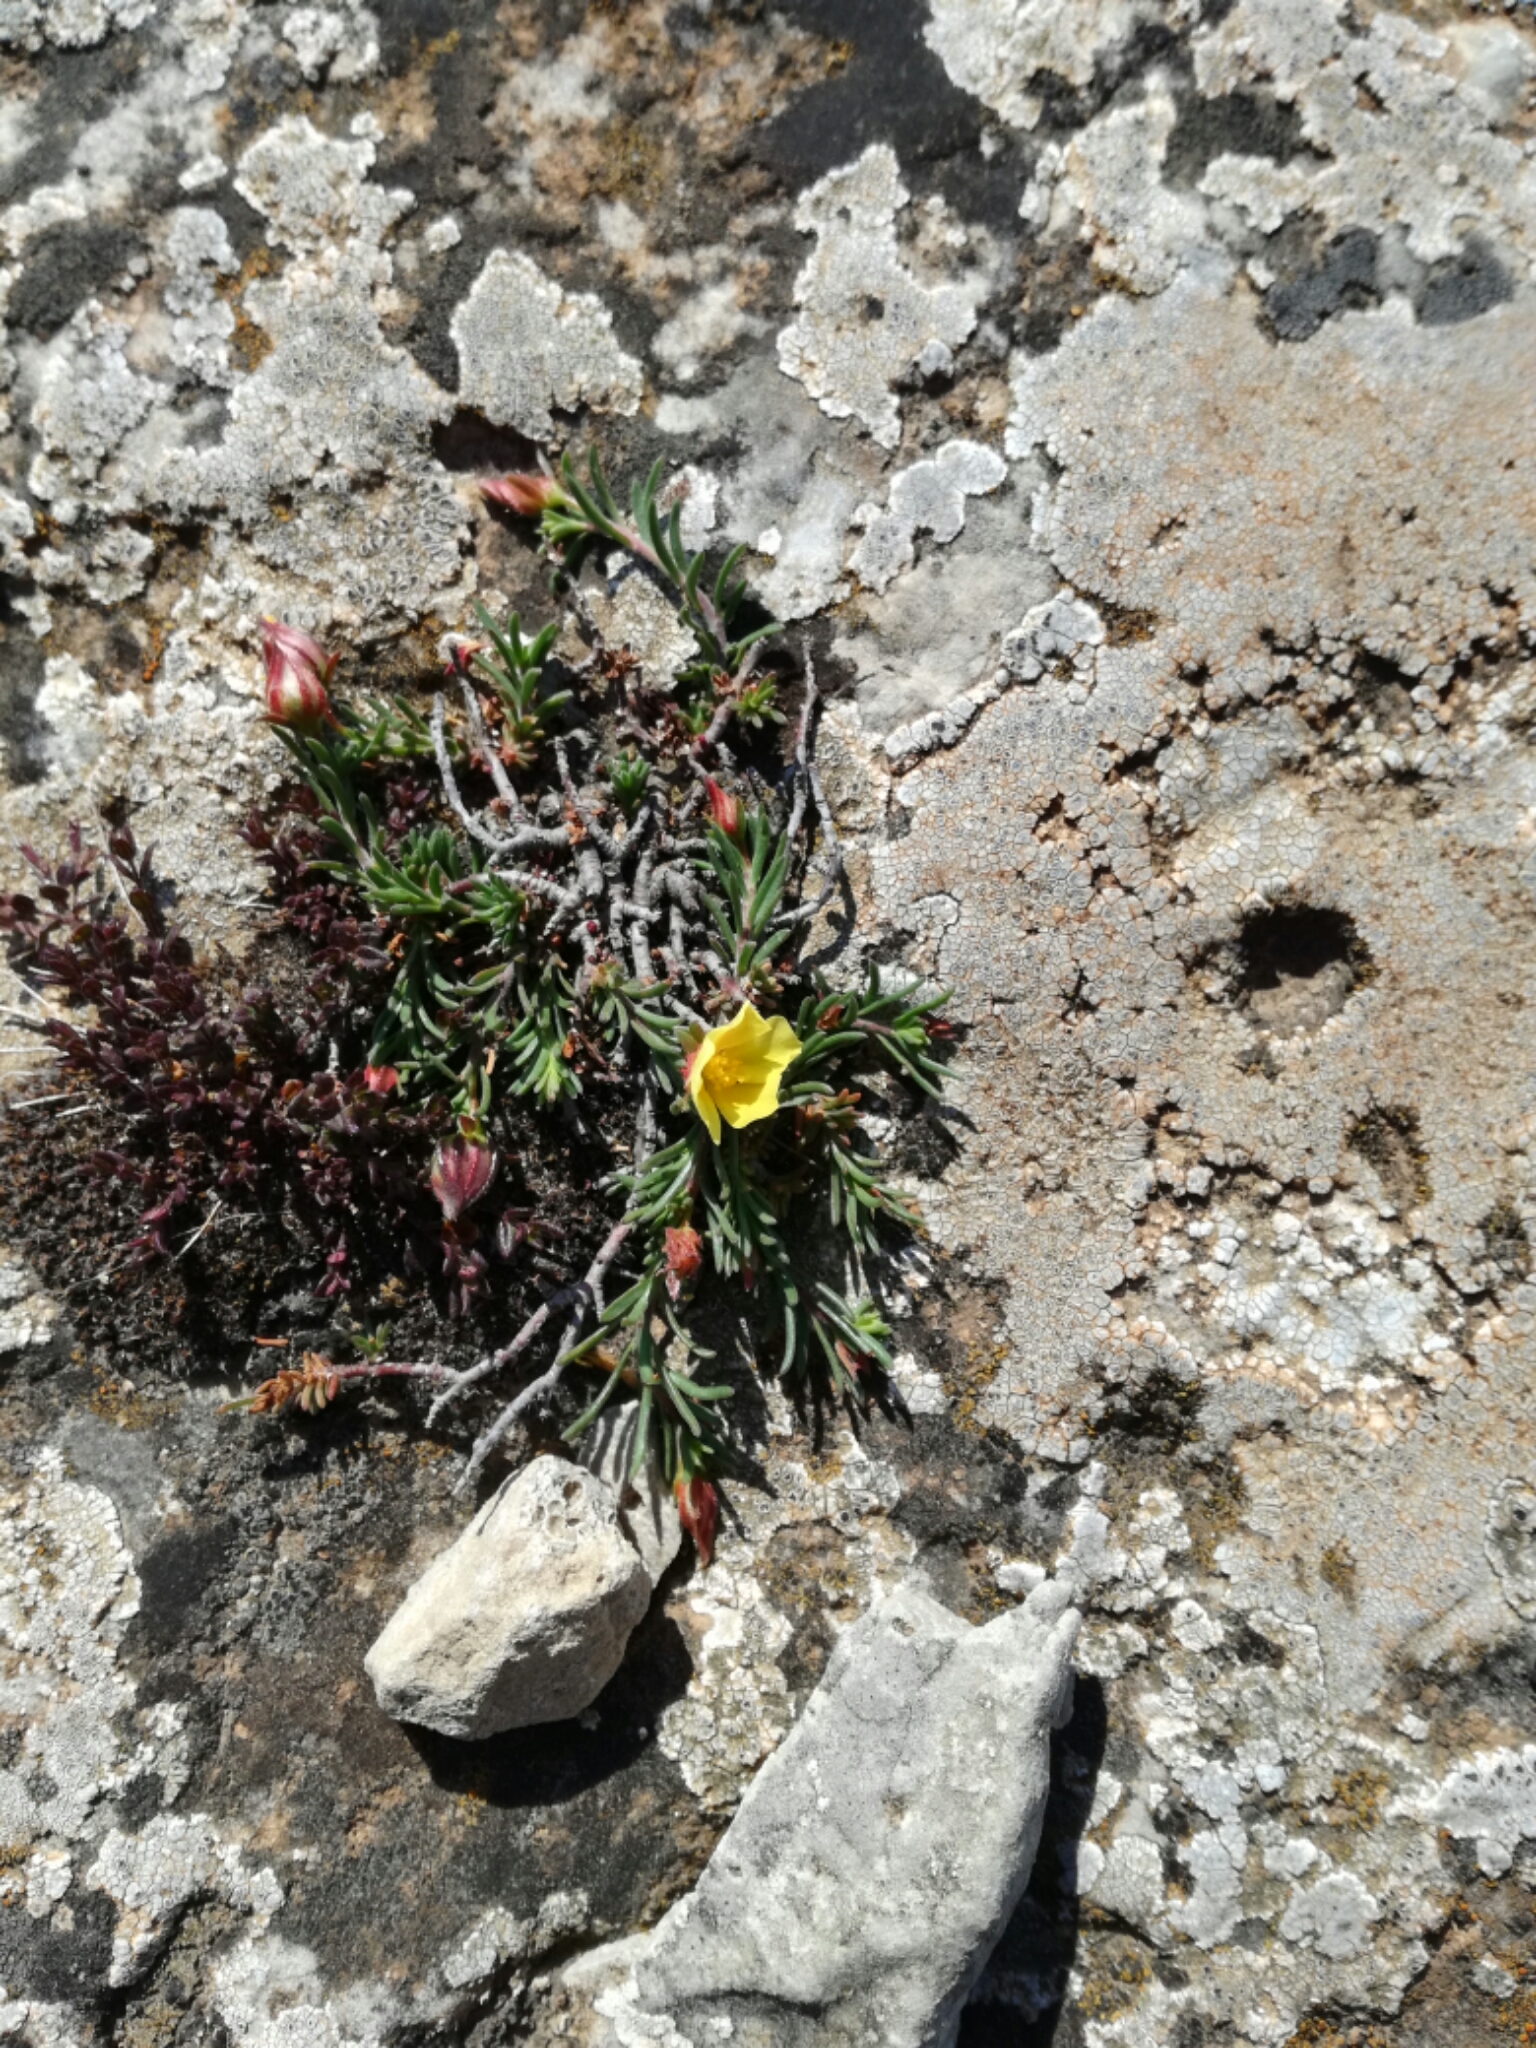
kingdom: Plantae
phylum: Tracheophyta
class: Magnoliopsida
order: Malvales
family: Cistaceae
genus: Fumana
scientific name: Fumana procumbens
